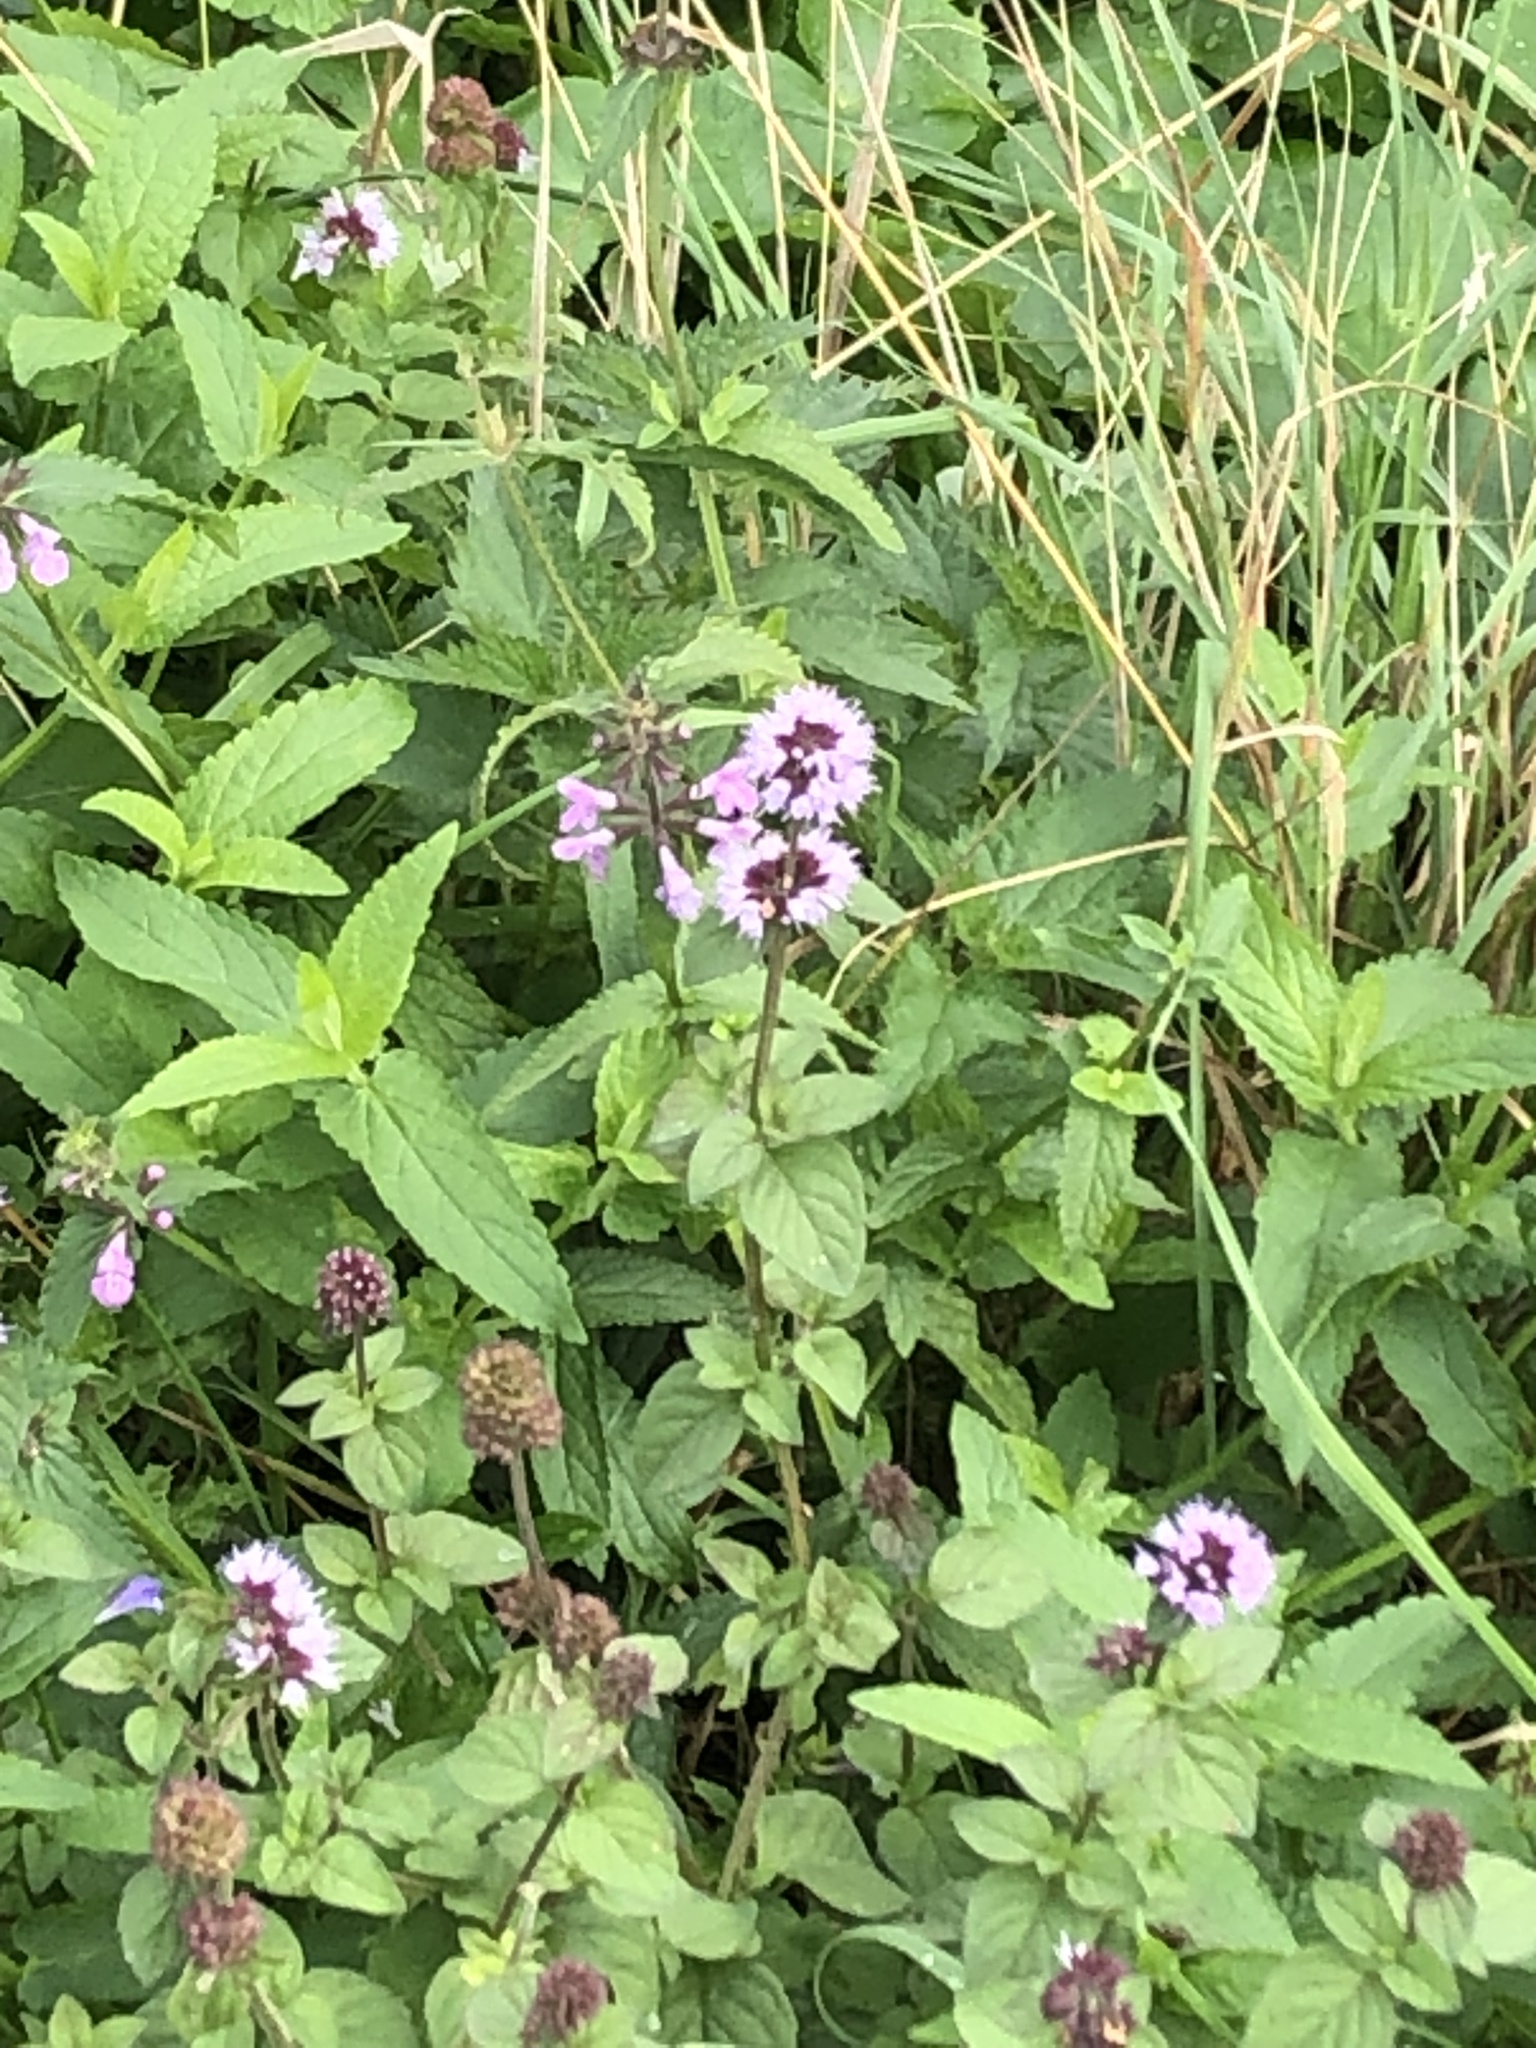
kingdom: Plantae
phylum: Tracheophyta
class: Magnoliopsida
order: Lamiales
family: Lamiaceae
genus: Mentha
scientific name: Mentha aquatica
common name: Water mint
